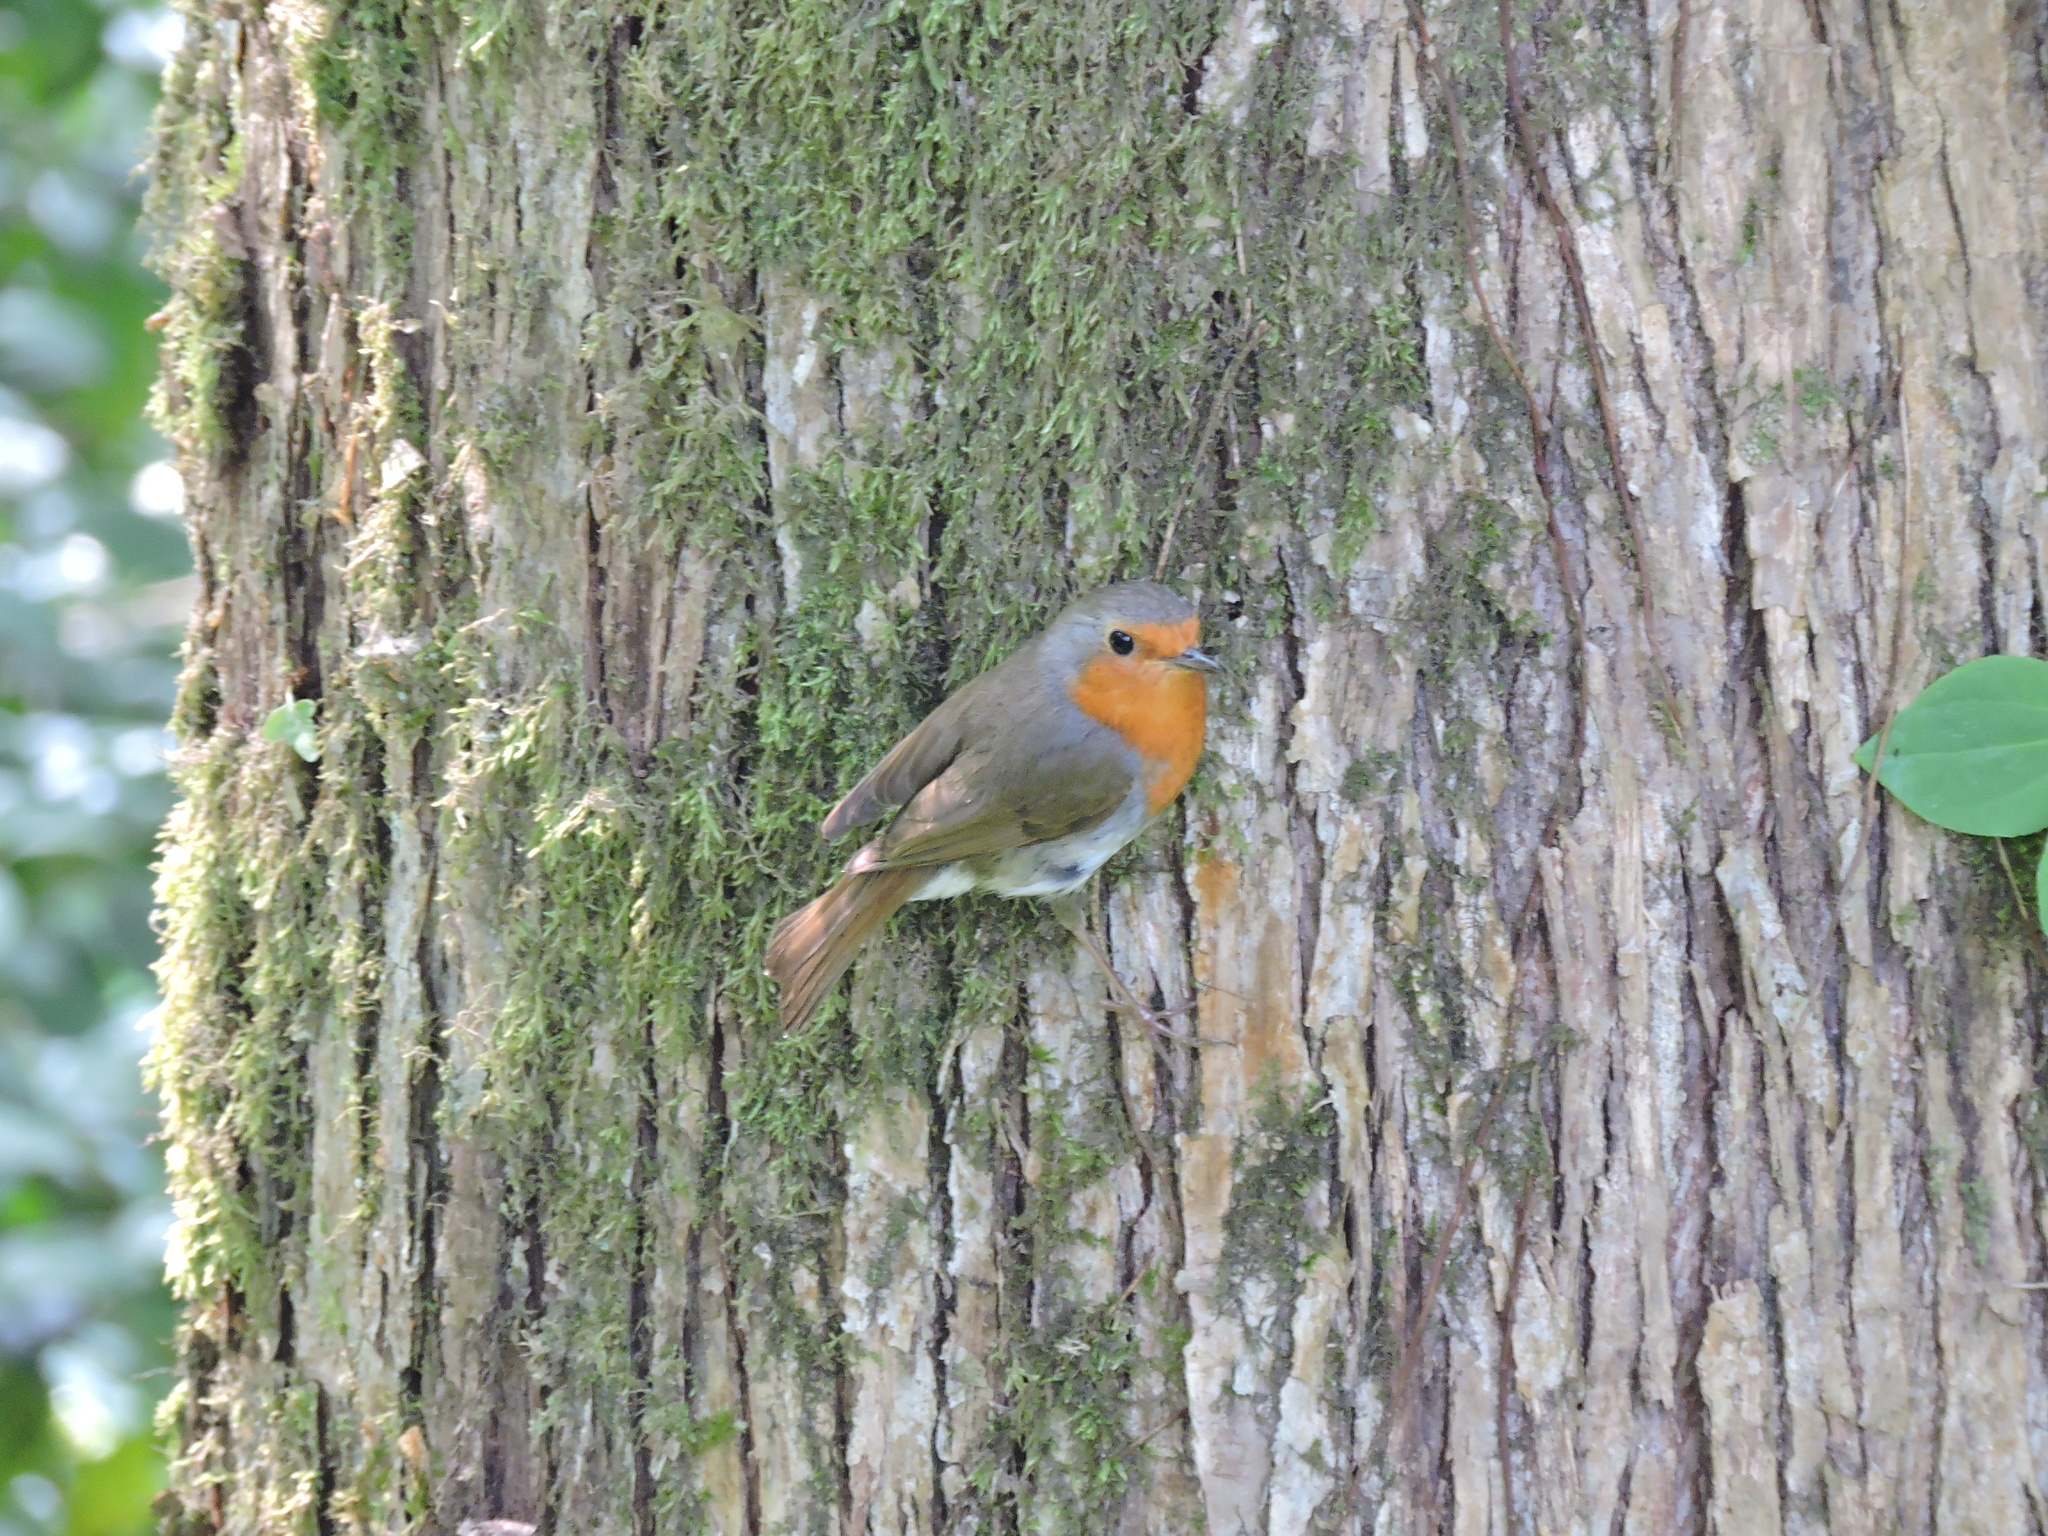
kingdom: Animalia
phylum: Chordata
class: Aves
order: Passeriformes
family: Muscicapidae
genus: Erithacus
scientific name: Erithacus rubecula
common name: European robin
